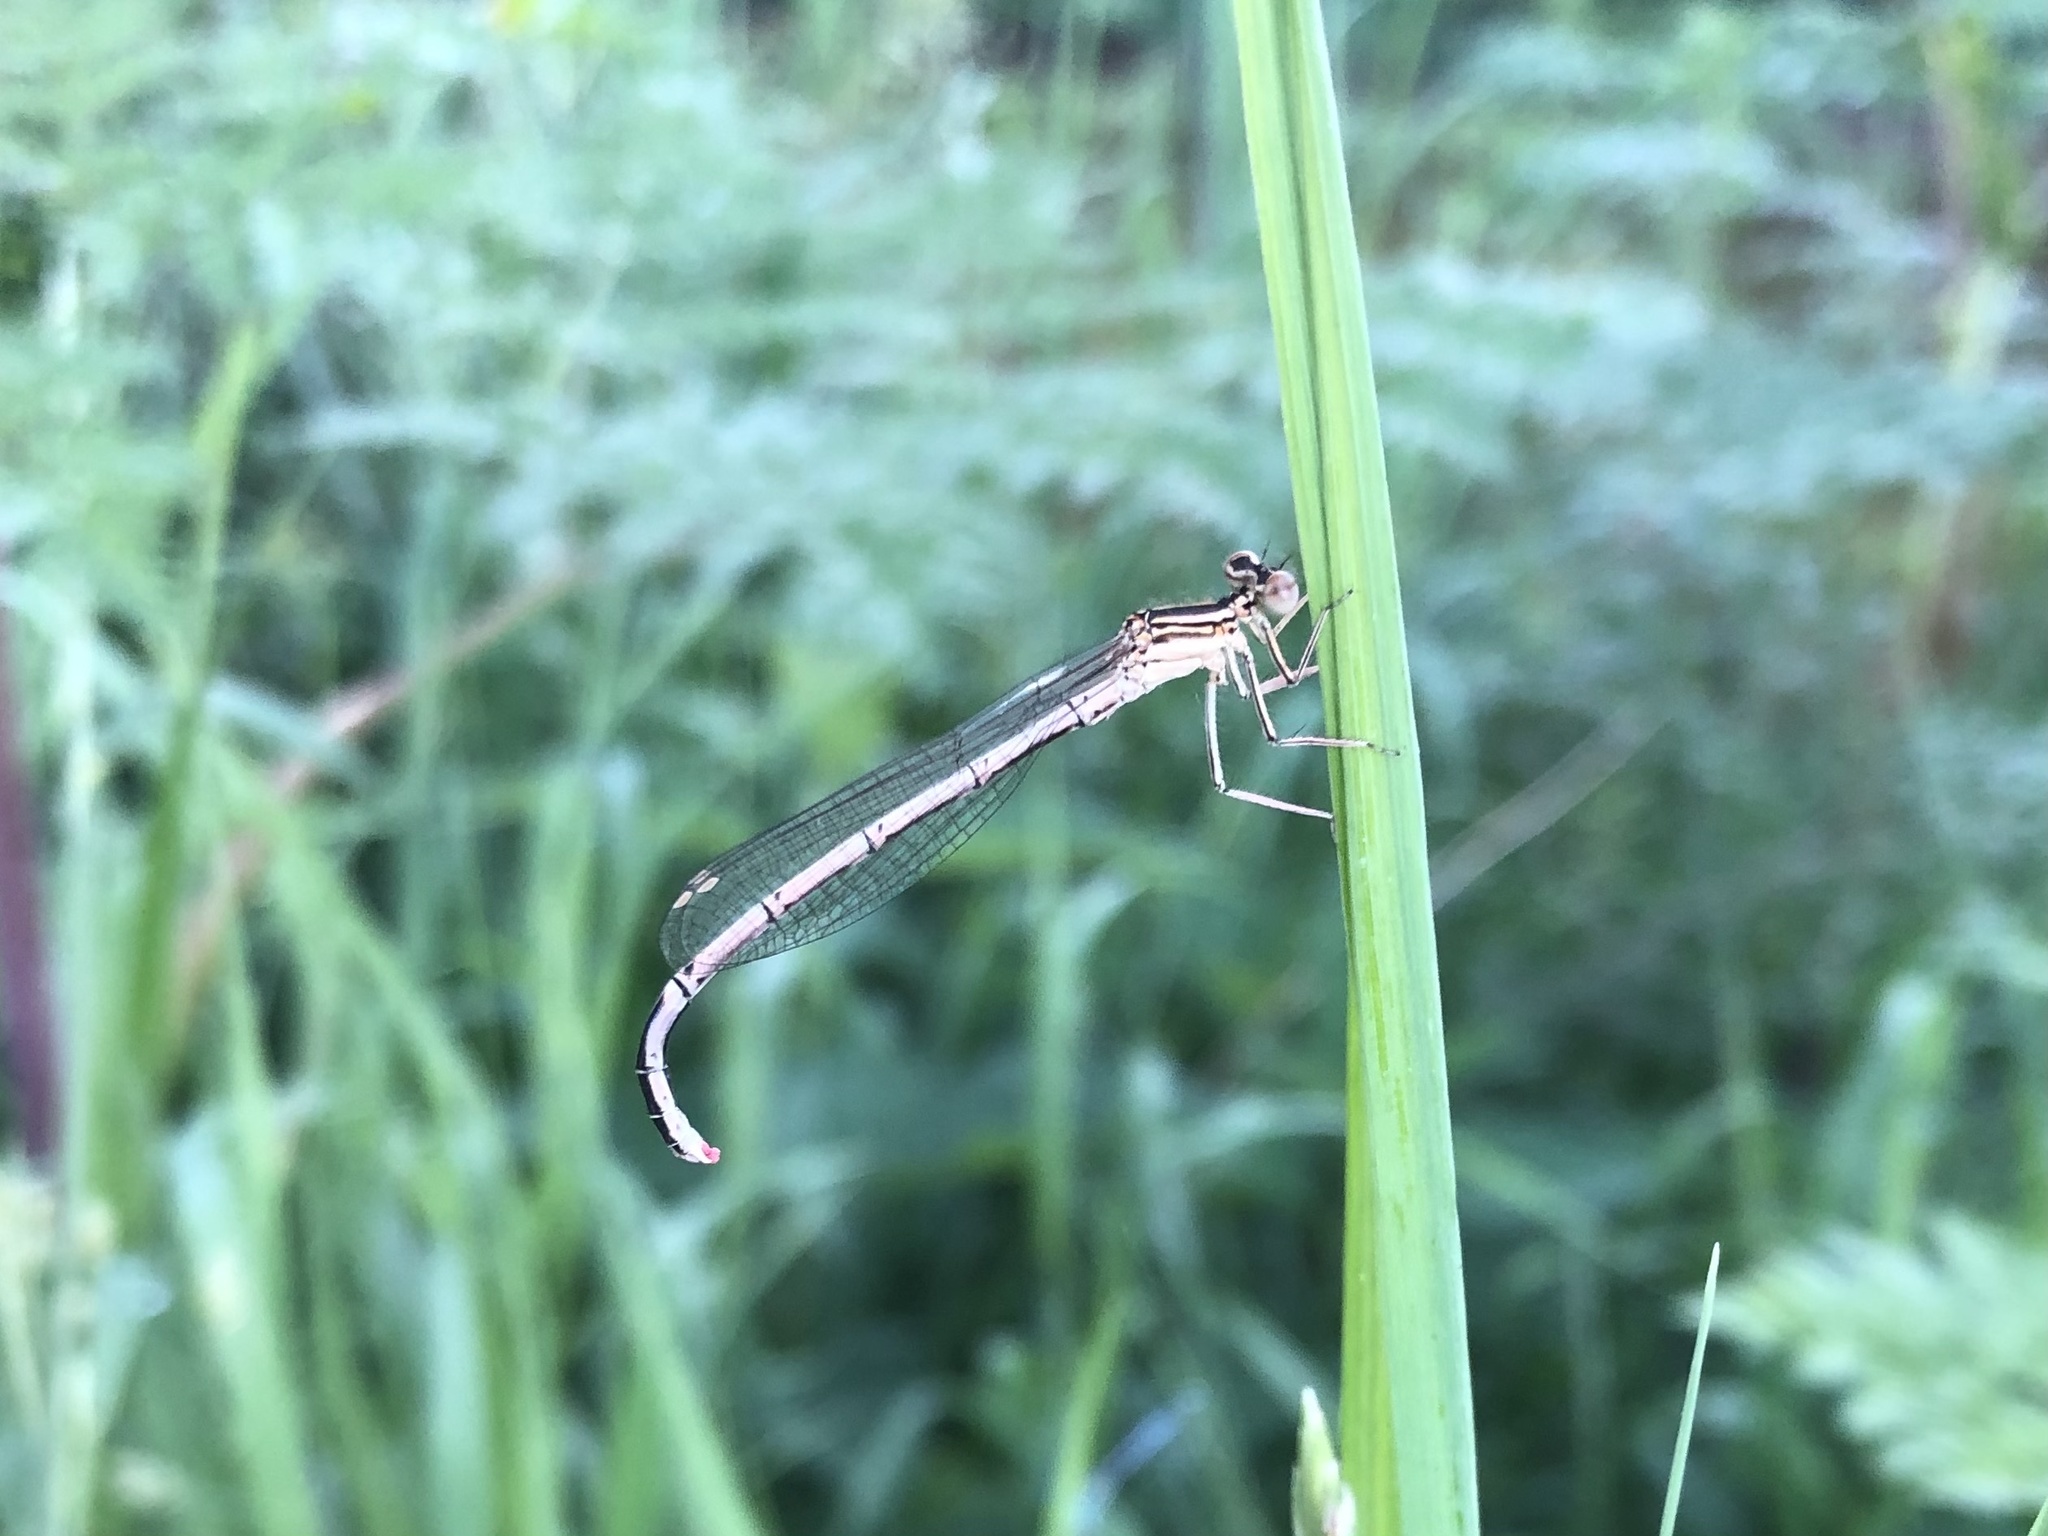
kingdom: Animalia
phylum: Arthropoda
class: Insecta
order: Odonata
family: Platycnemididae
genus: Platycnemis
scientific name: Platycnemis pennipes
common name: White-legged damselfly
